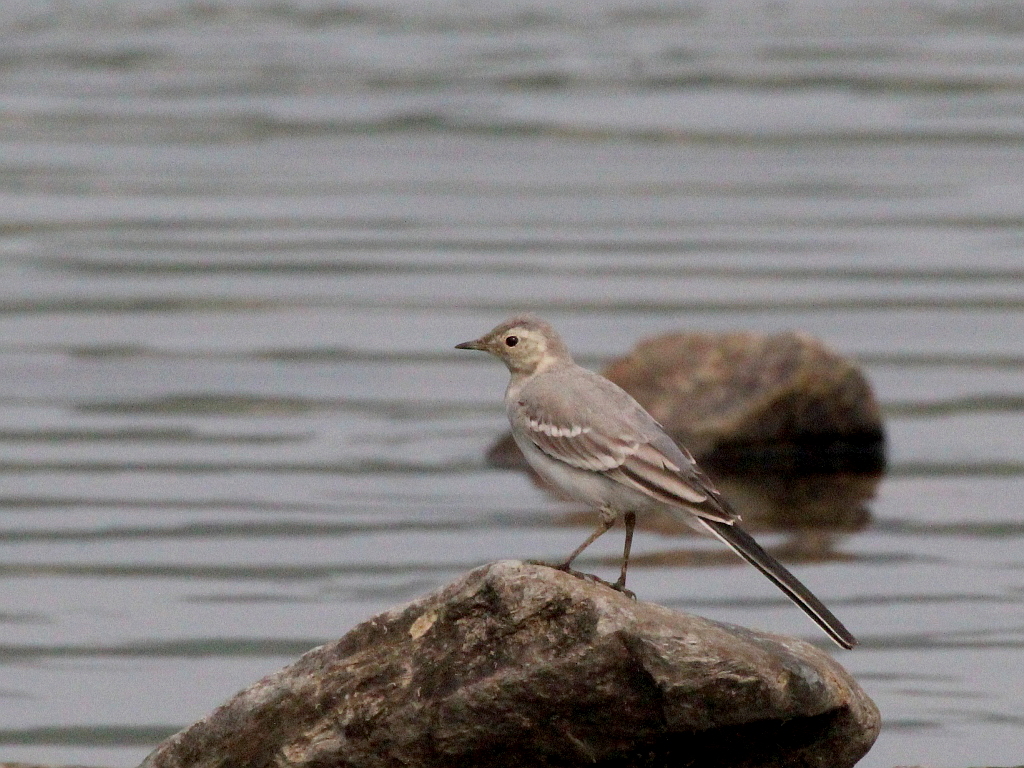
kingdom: Animalia
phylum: Chordata
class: Aves
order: Passeriformes
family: Motacillidae
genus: Motacilla
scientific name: Motacilla alba
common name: White wagtail
